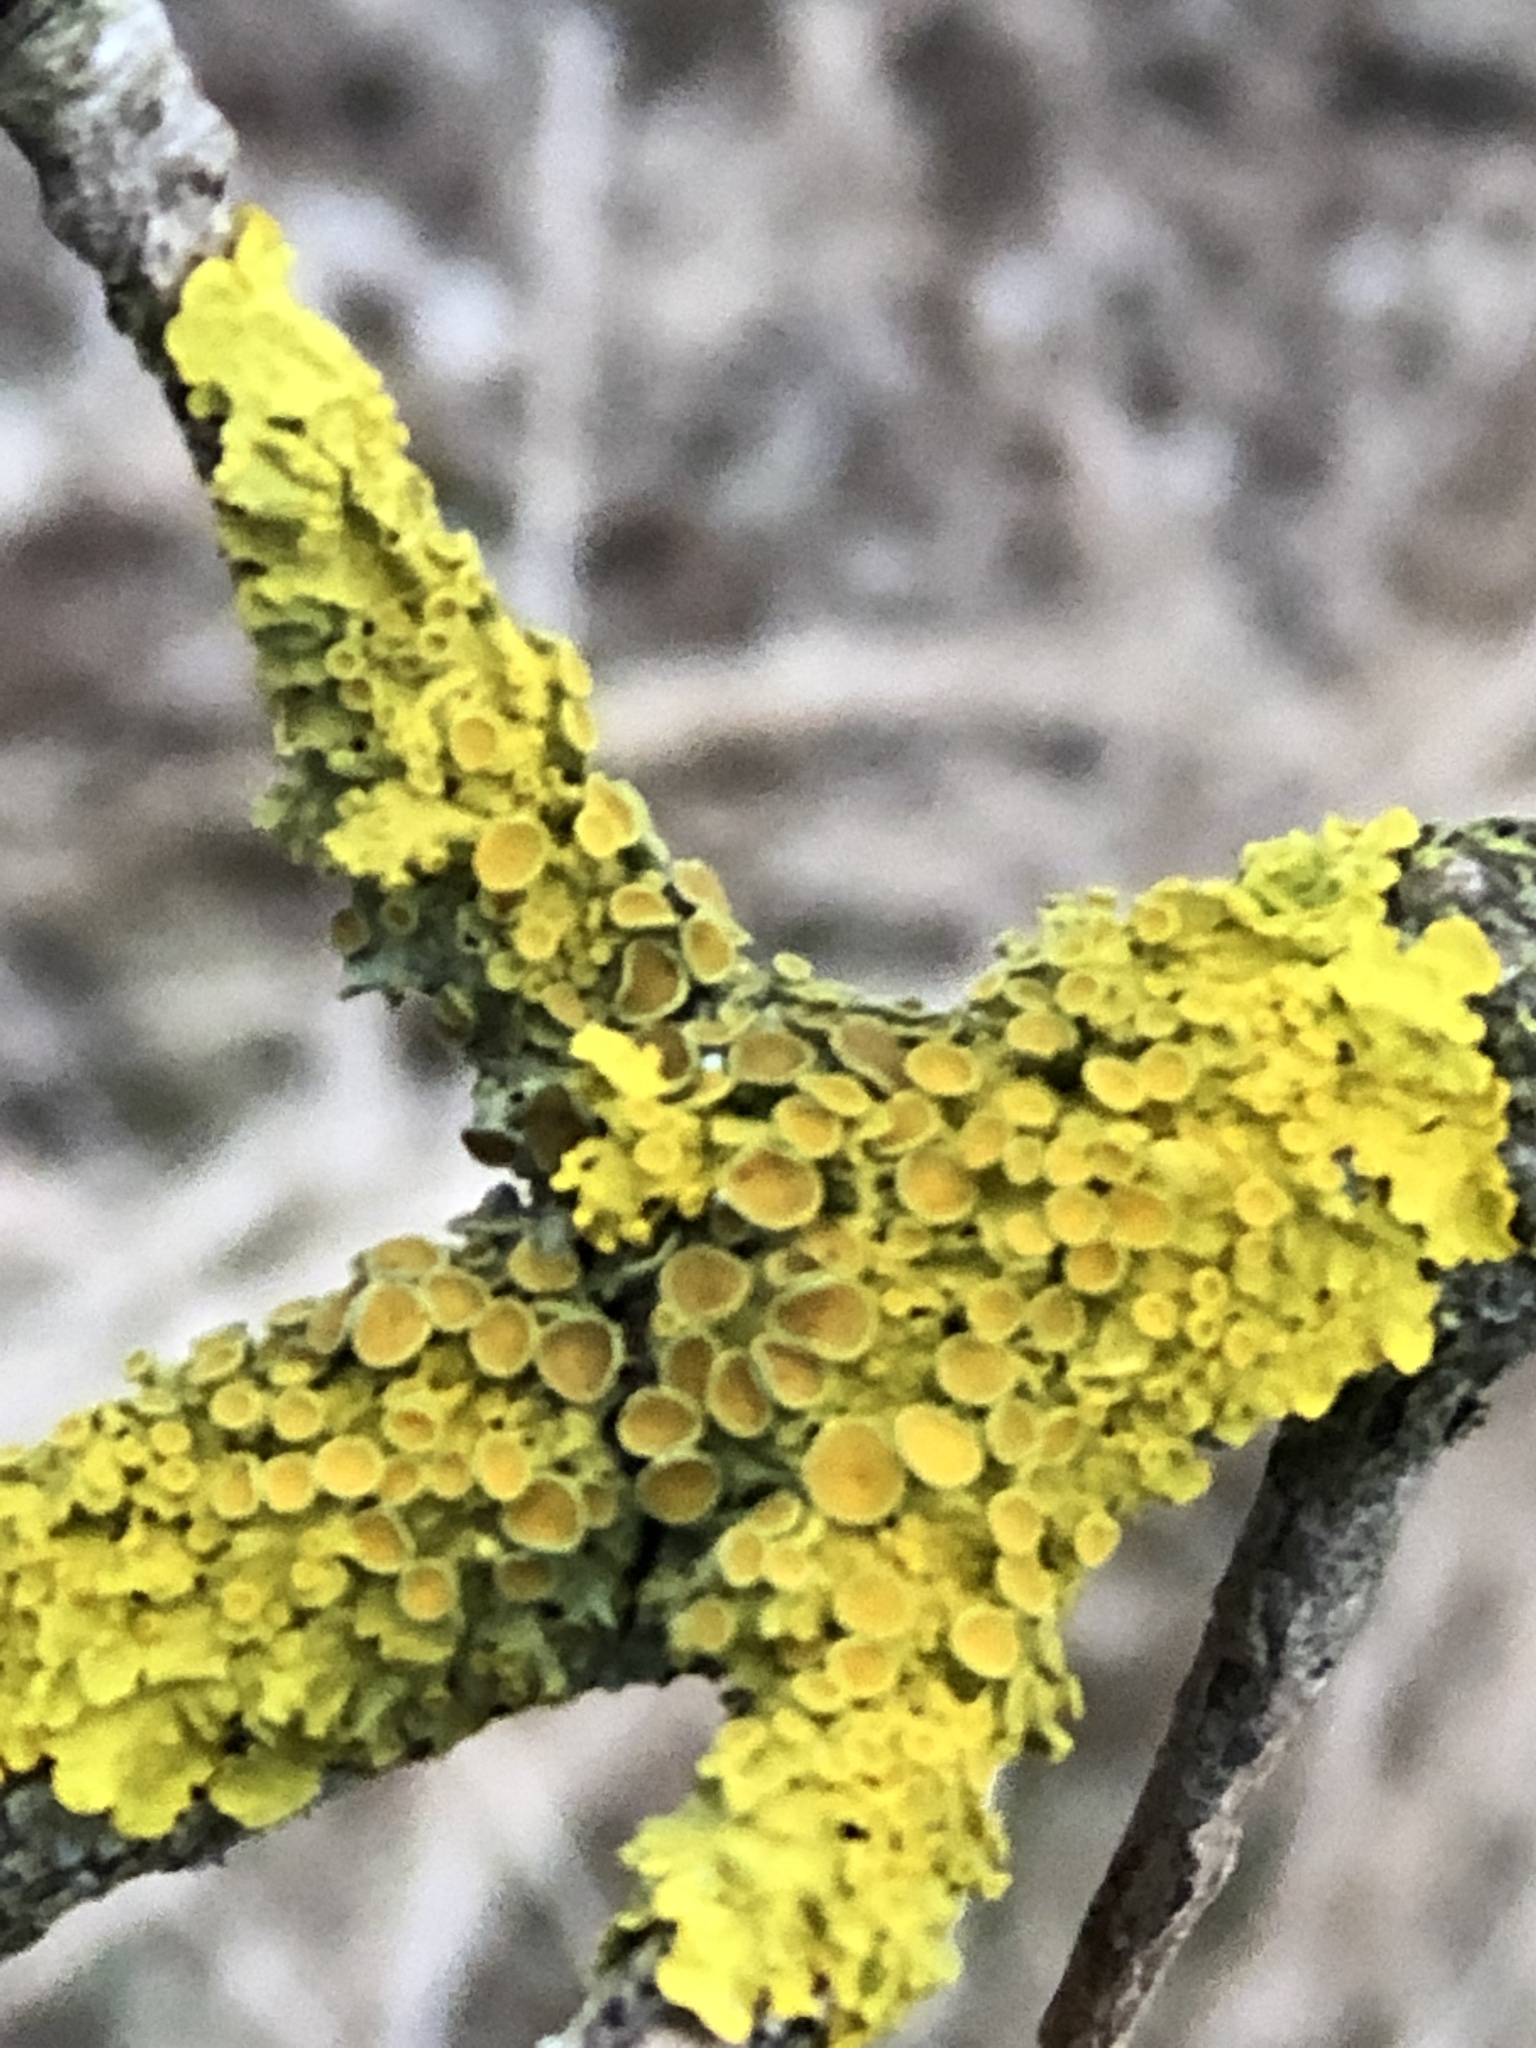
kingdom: Fungi
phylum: Ascomycota
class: Lecanoromycetes
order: Teloschistales
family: Teloschistaceae
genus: Xanthoria
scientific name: Xanthoria parietina
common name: Common orange lichen
